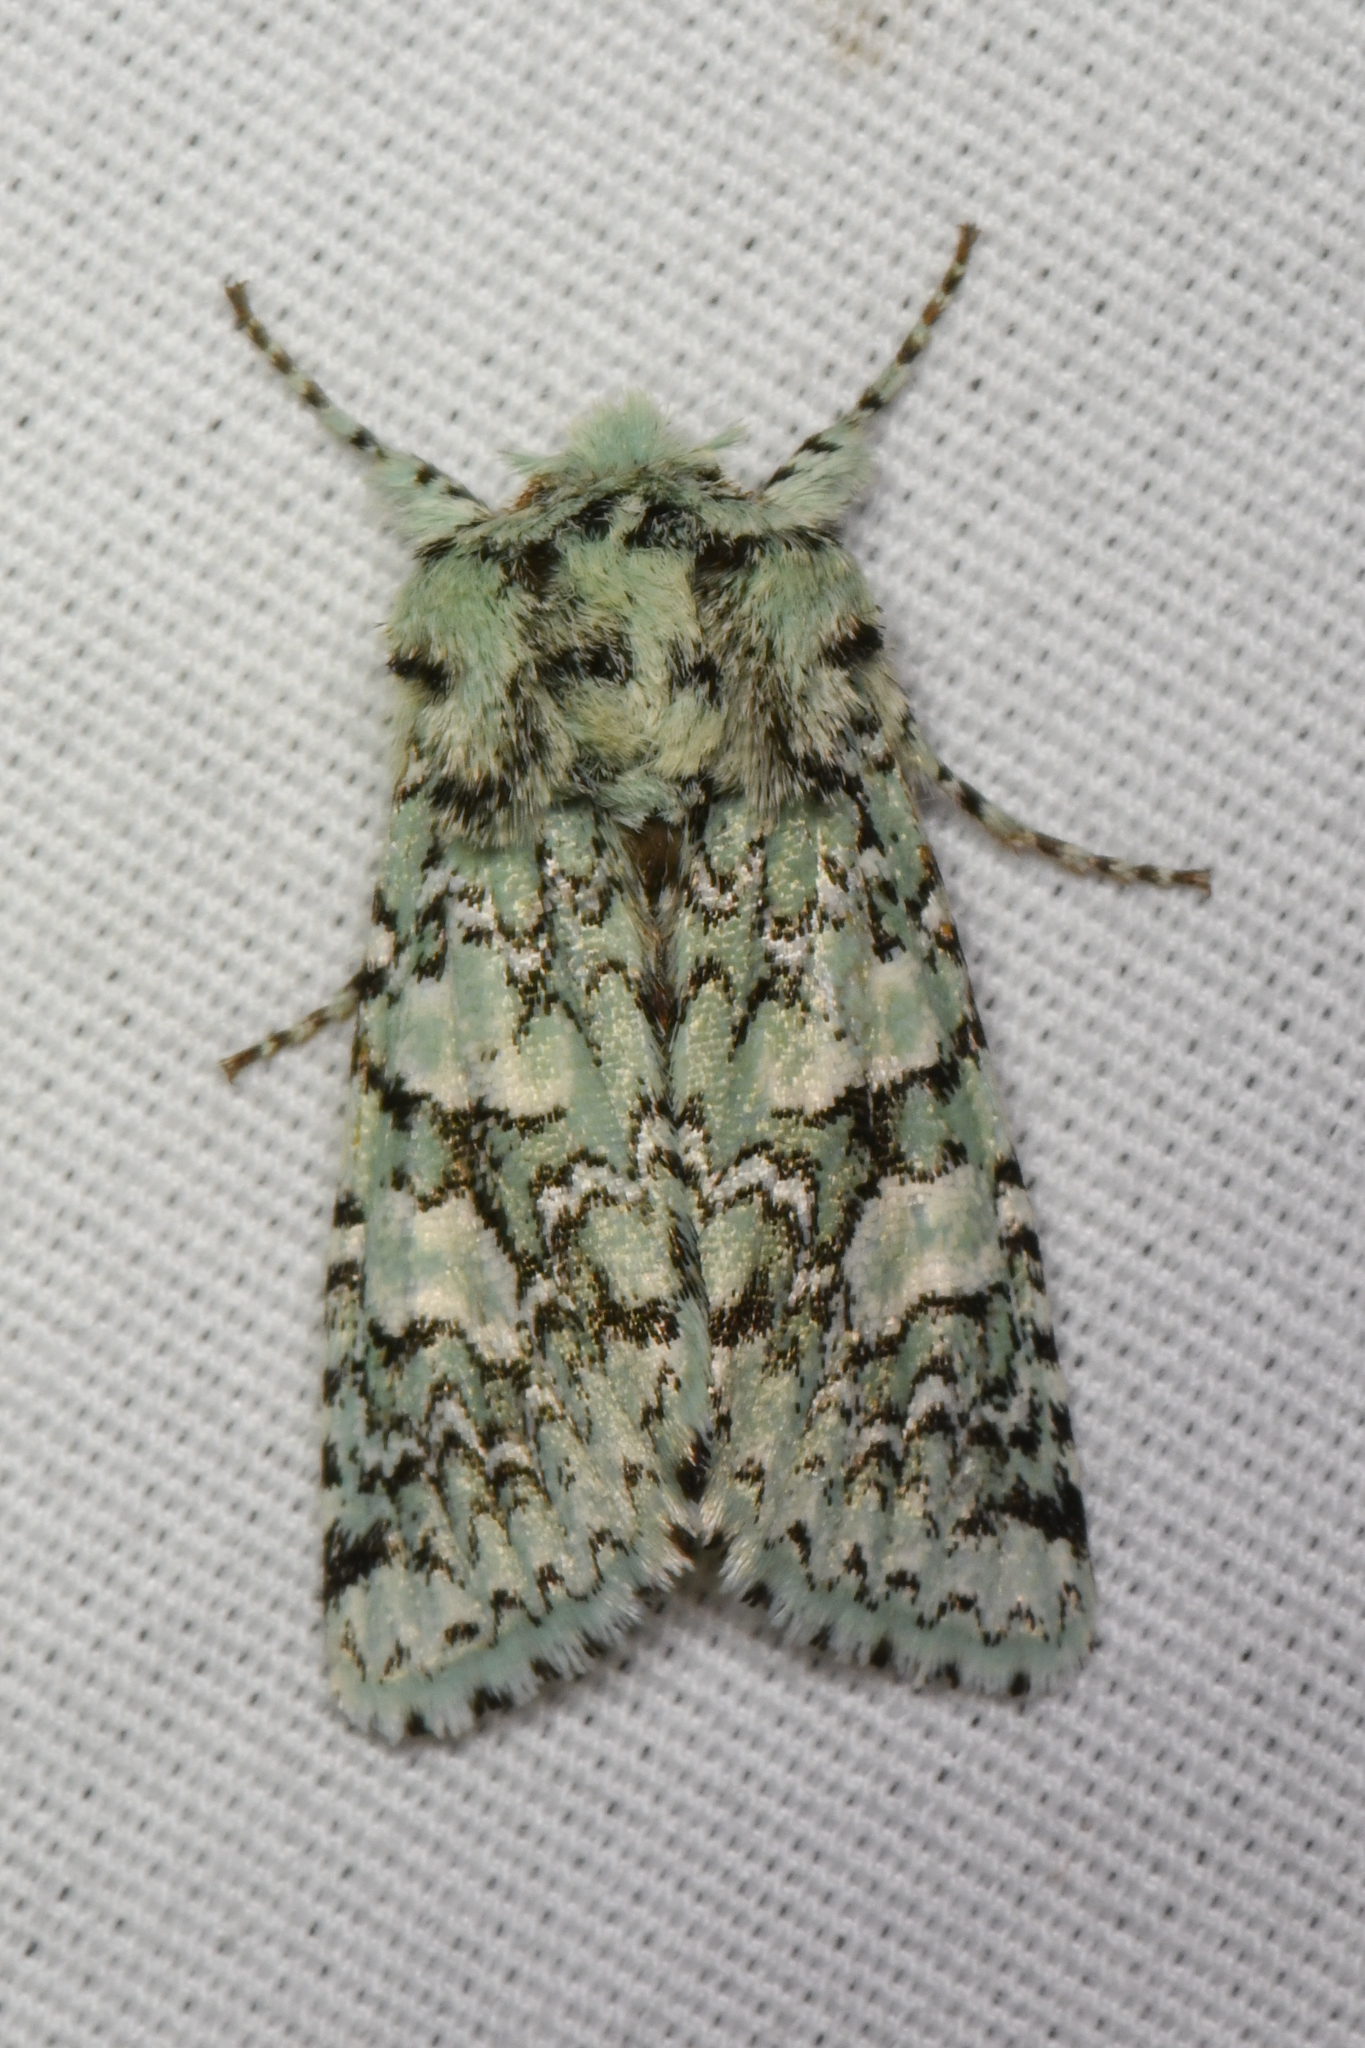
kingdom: Animalia
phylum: Arthropoda
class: Insecta
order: Lepidoptera
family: Noctuidae
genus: Feralia
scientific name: Feralia februalis
